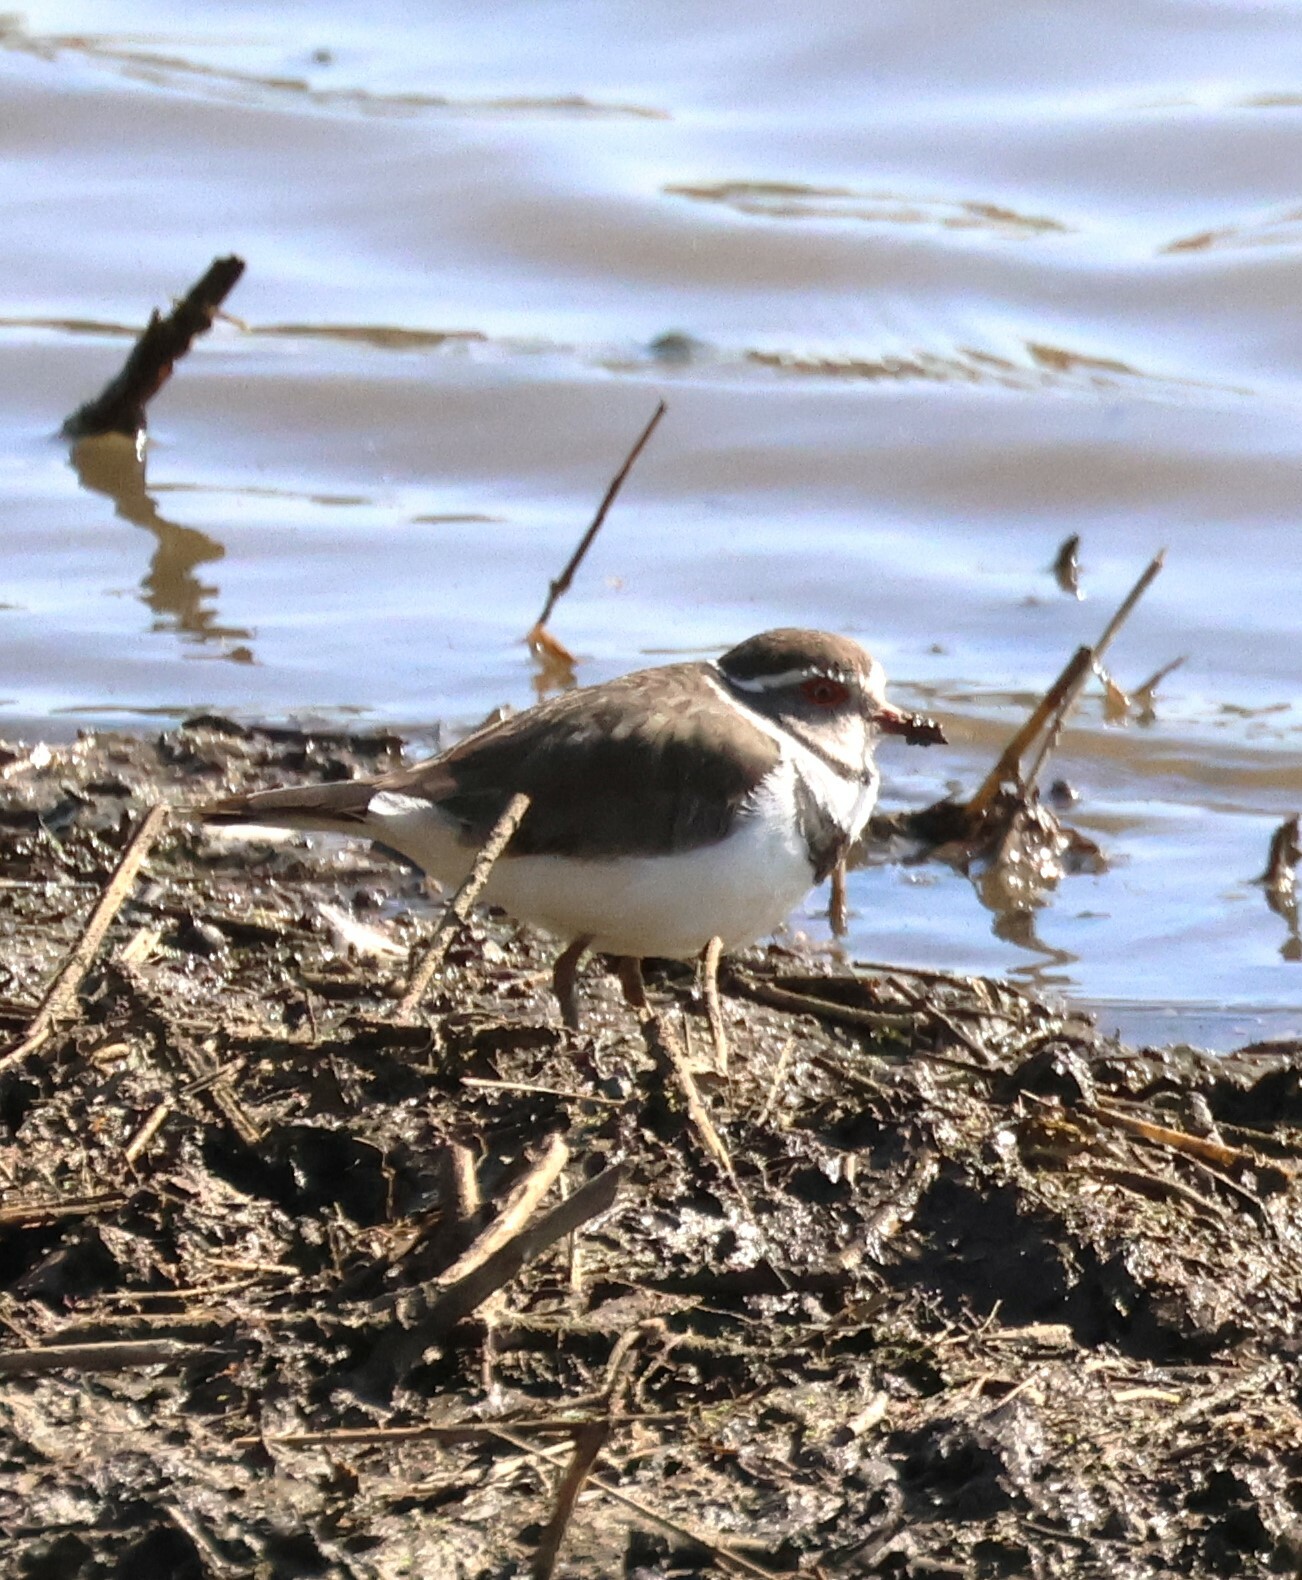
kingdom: Animalia
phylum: Chordata
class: Aves
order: Charadriiformes
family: Charadriidae
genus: Charadrius
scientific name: Charadrius tricollaris
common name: Three-banded plover
